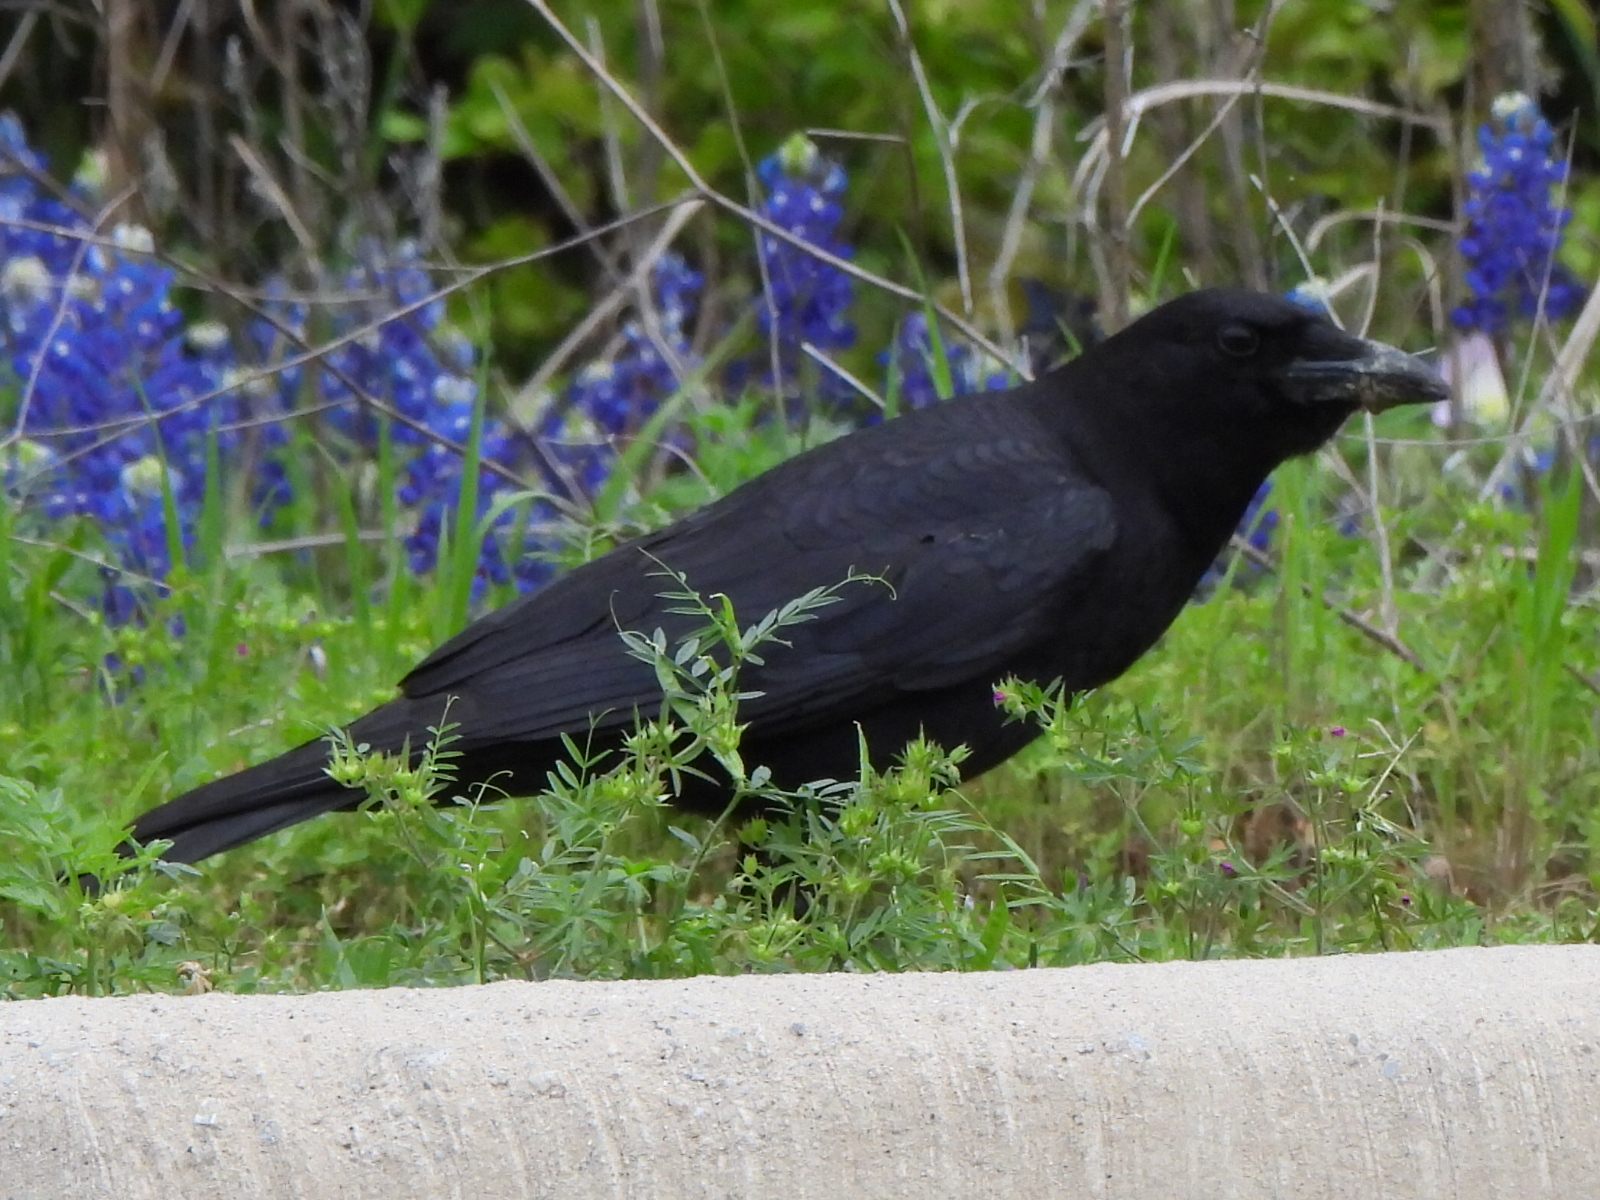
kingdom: Animalia
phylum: Chordata
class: Aves
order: Passeriformes
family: Corvidae
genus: Corvus
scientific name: Corvus brachyrhynchos
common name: American crow
